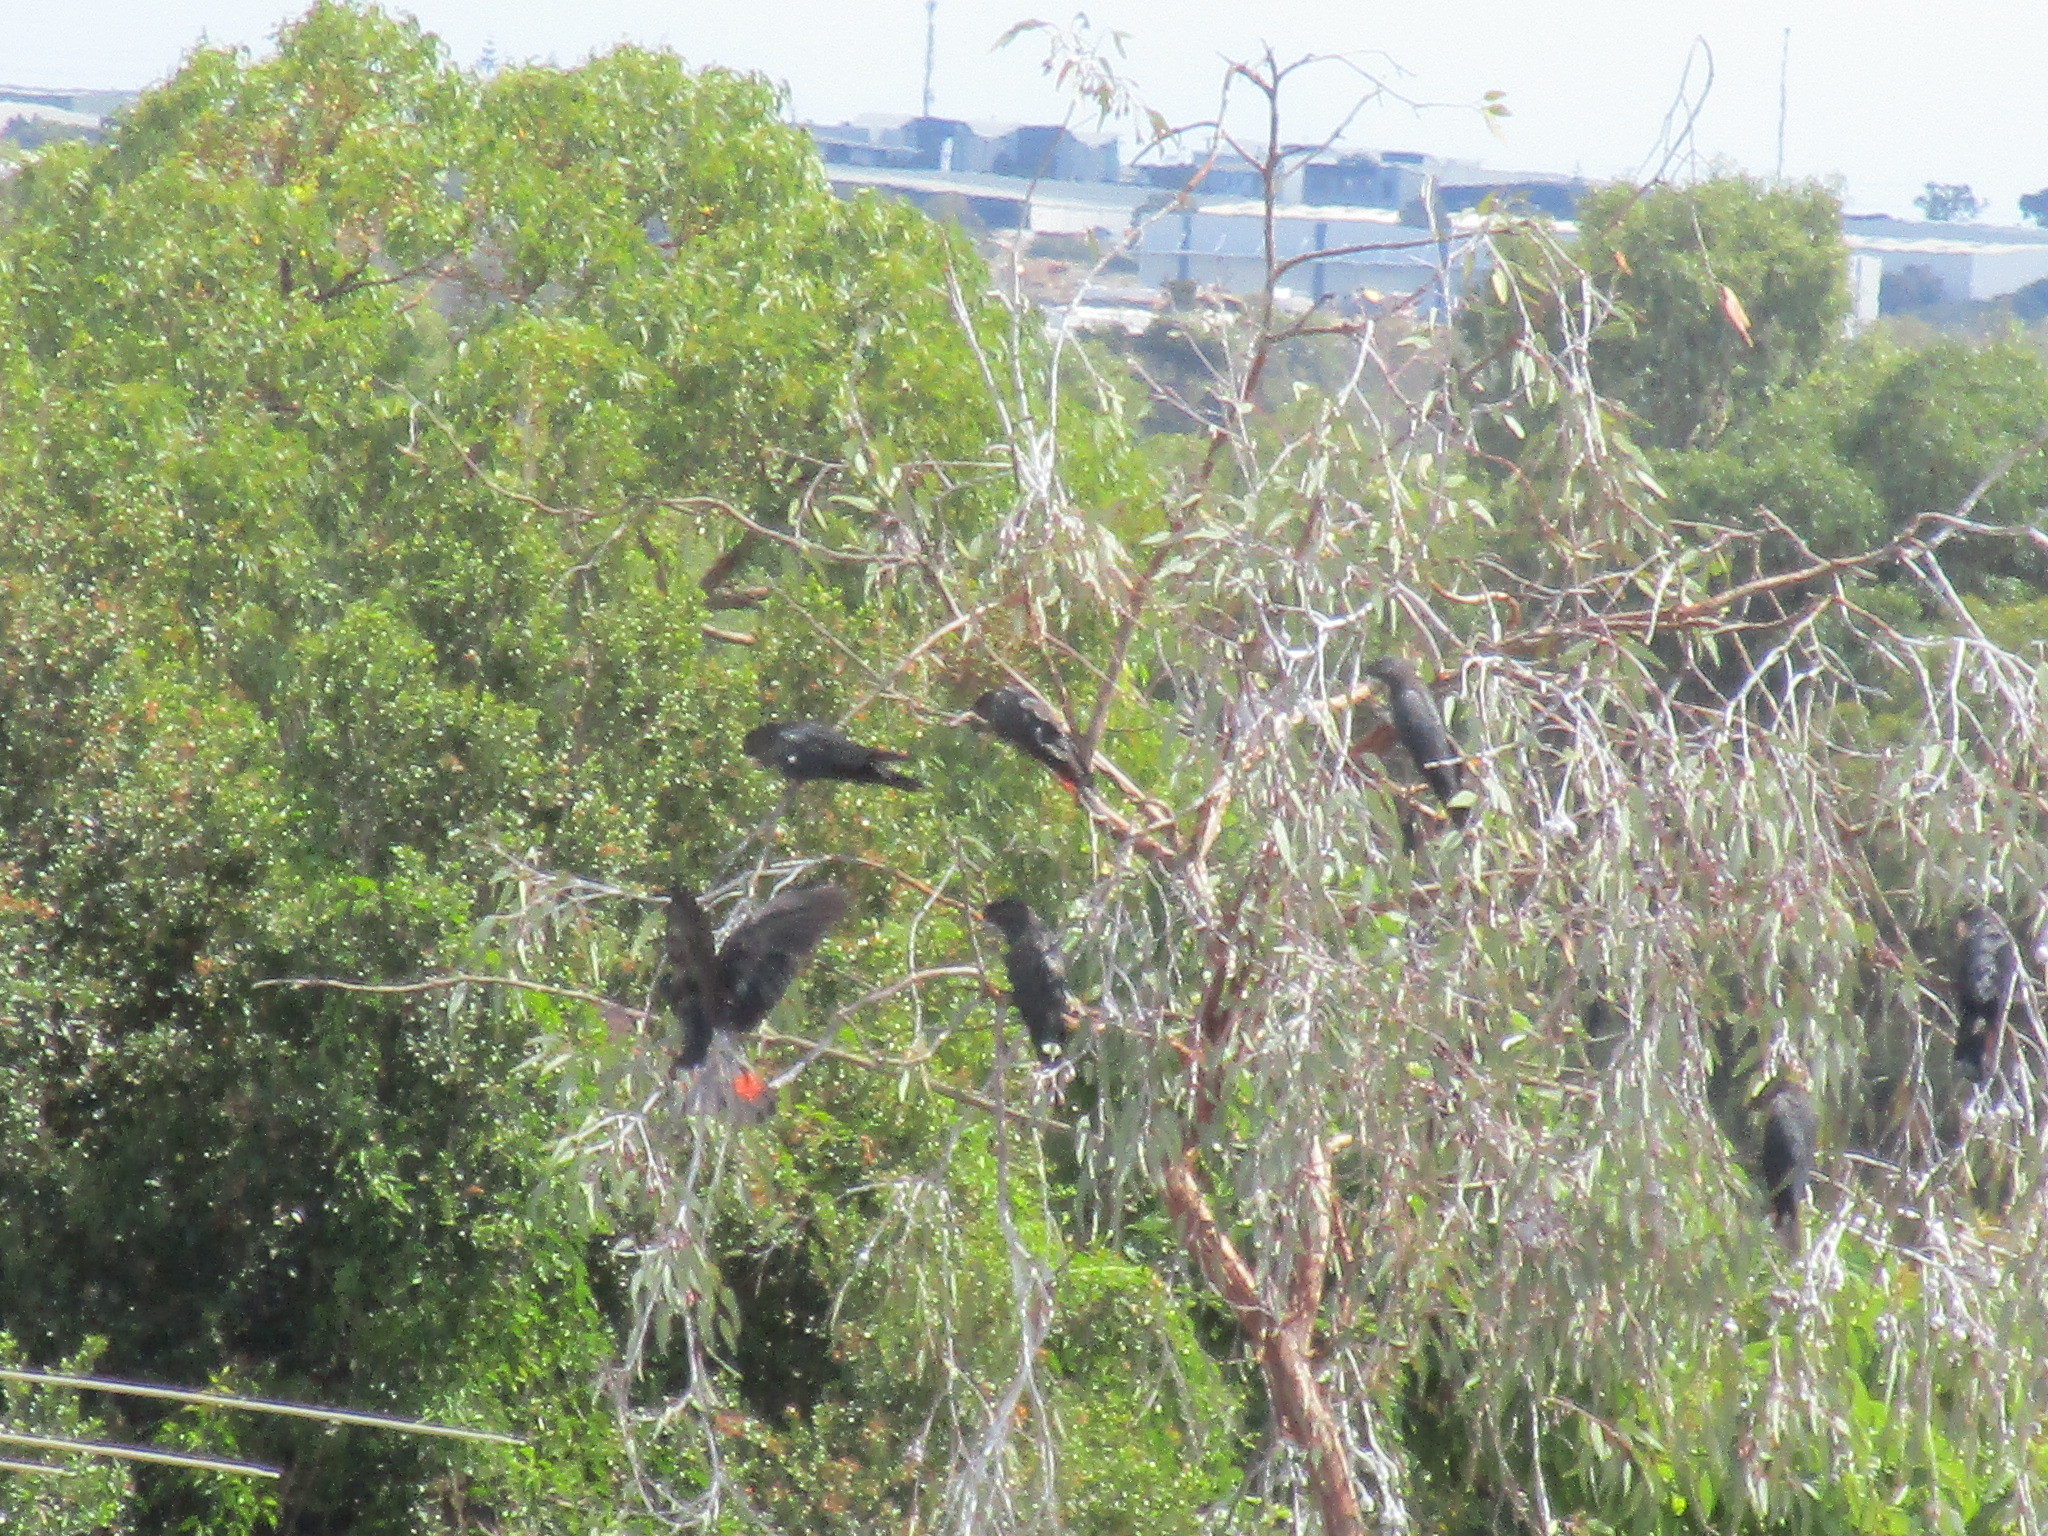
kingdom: Animalia
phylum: Chordata
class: Aves
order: Psittaciformes
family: Psittacidae
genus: Calyptorhynchus
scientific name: Calyptorhynchus banksii
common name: Red-tailed black cockatoo
